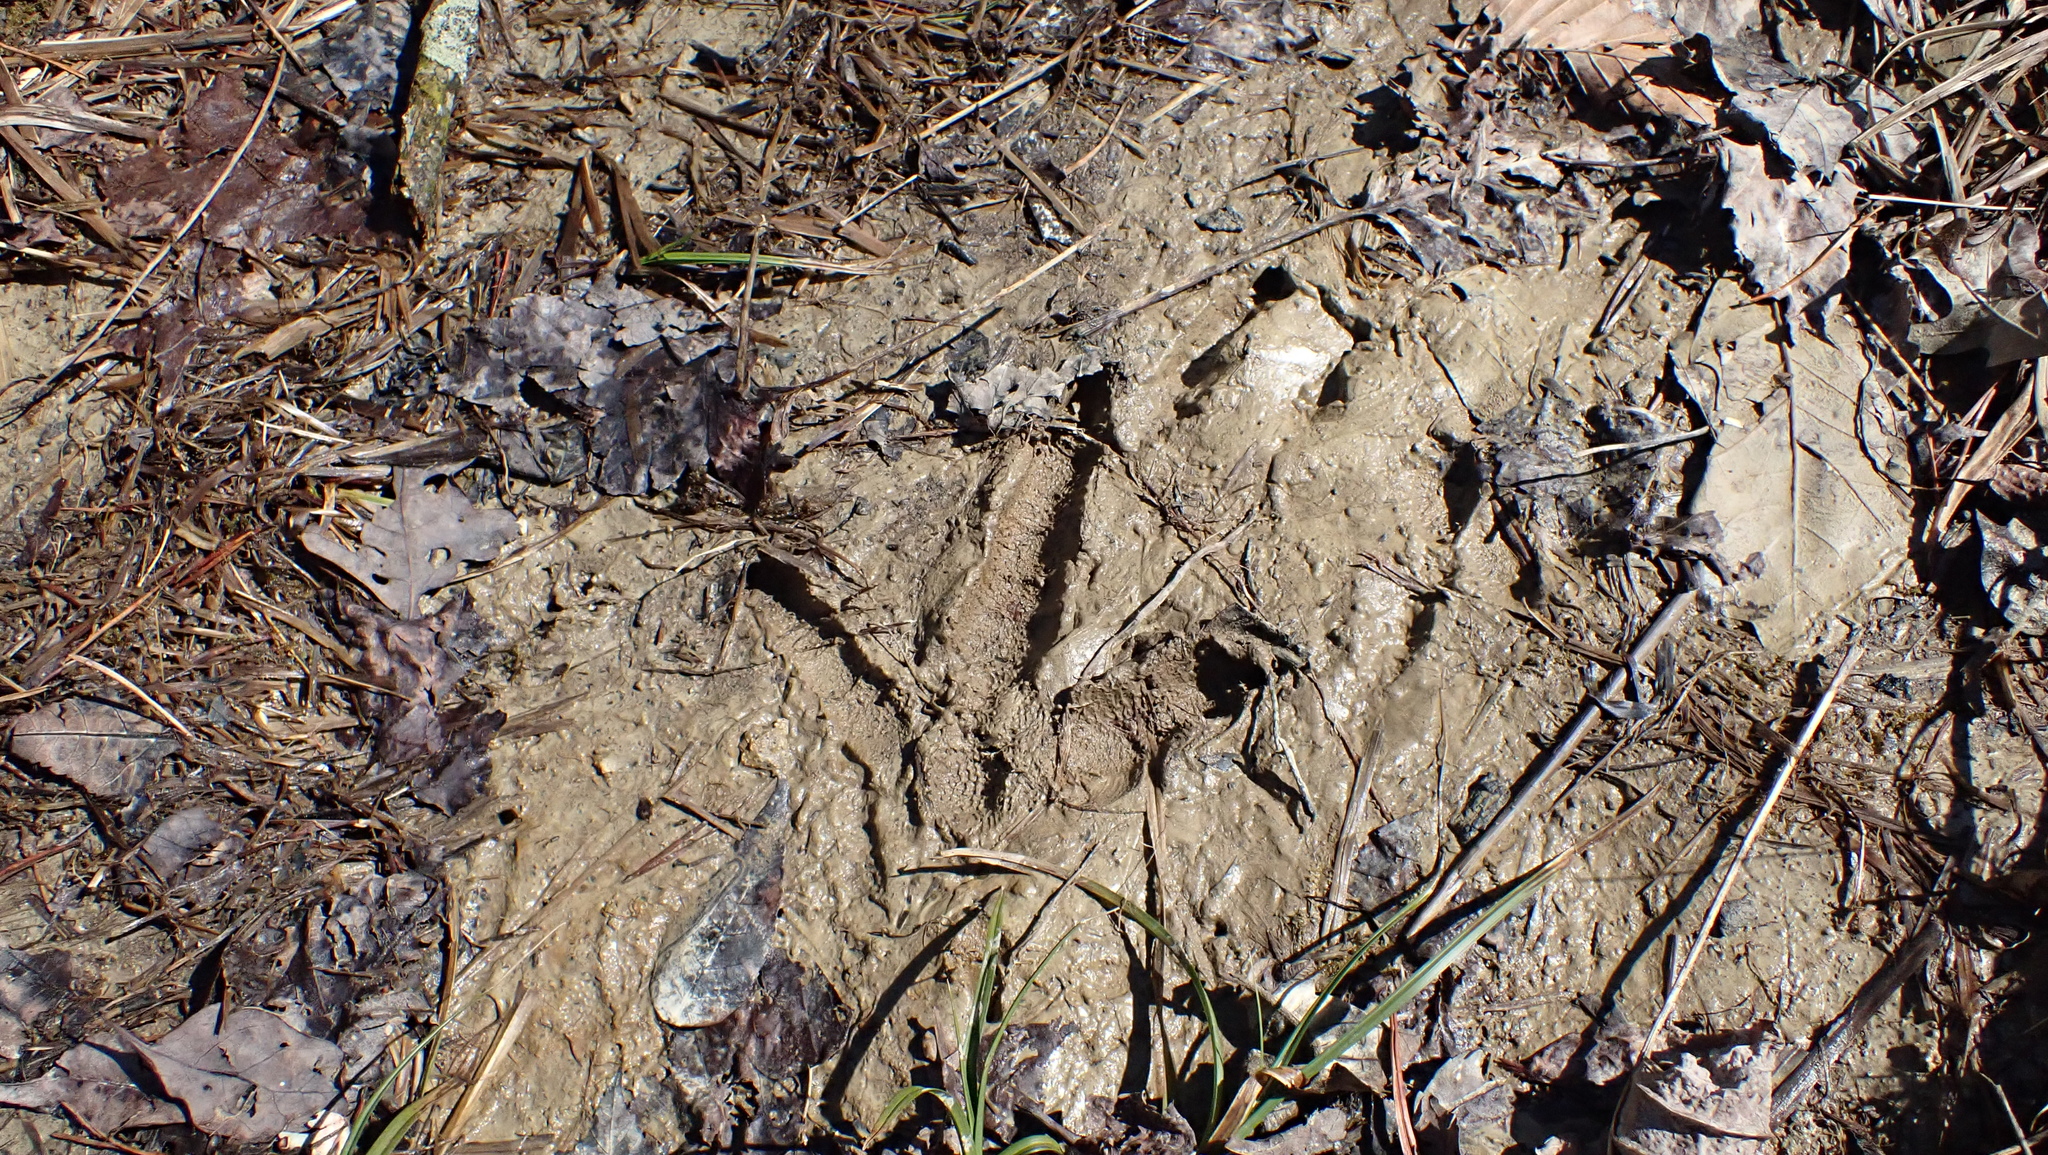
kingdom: Animalia
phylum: Chordata
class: Aves
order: Galliformes
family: Phasianidae
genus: Meleagris
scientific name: Meleagris gallopavo
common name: Wild turkey
